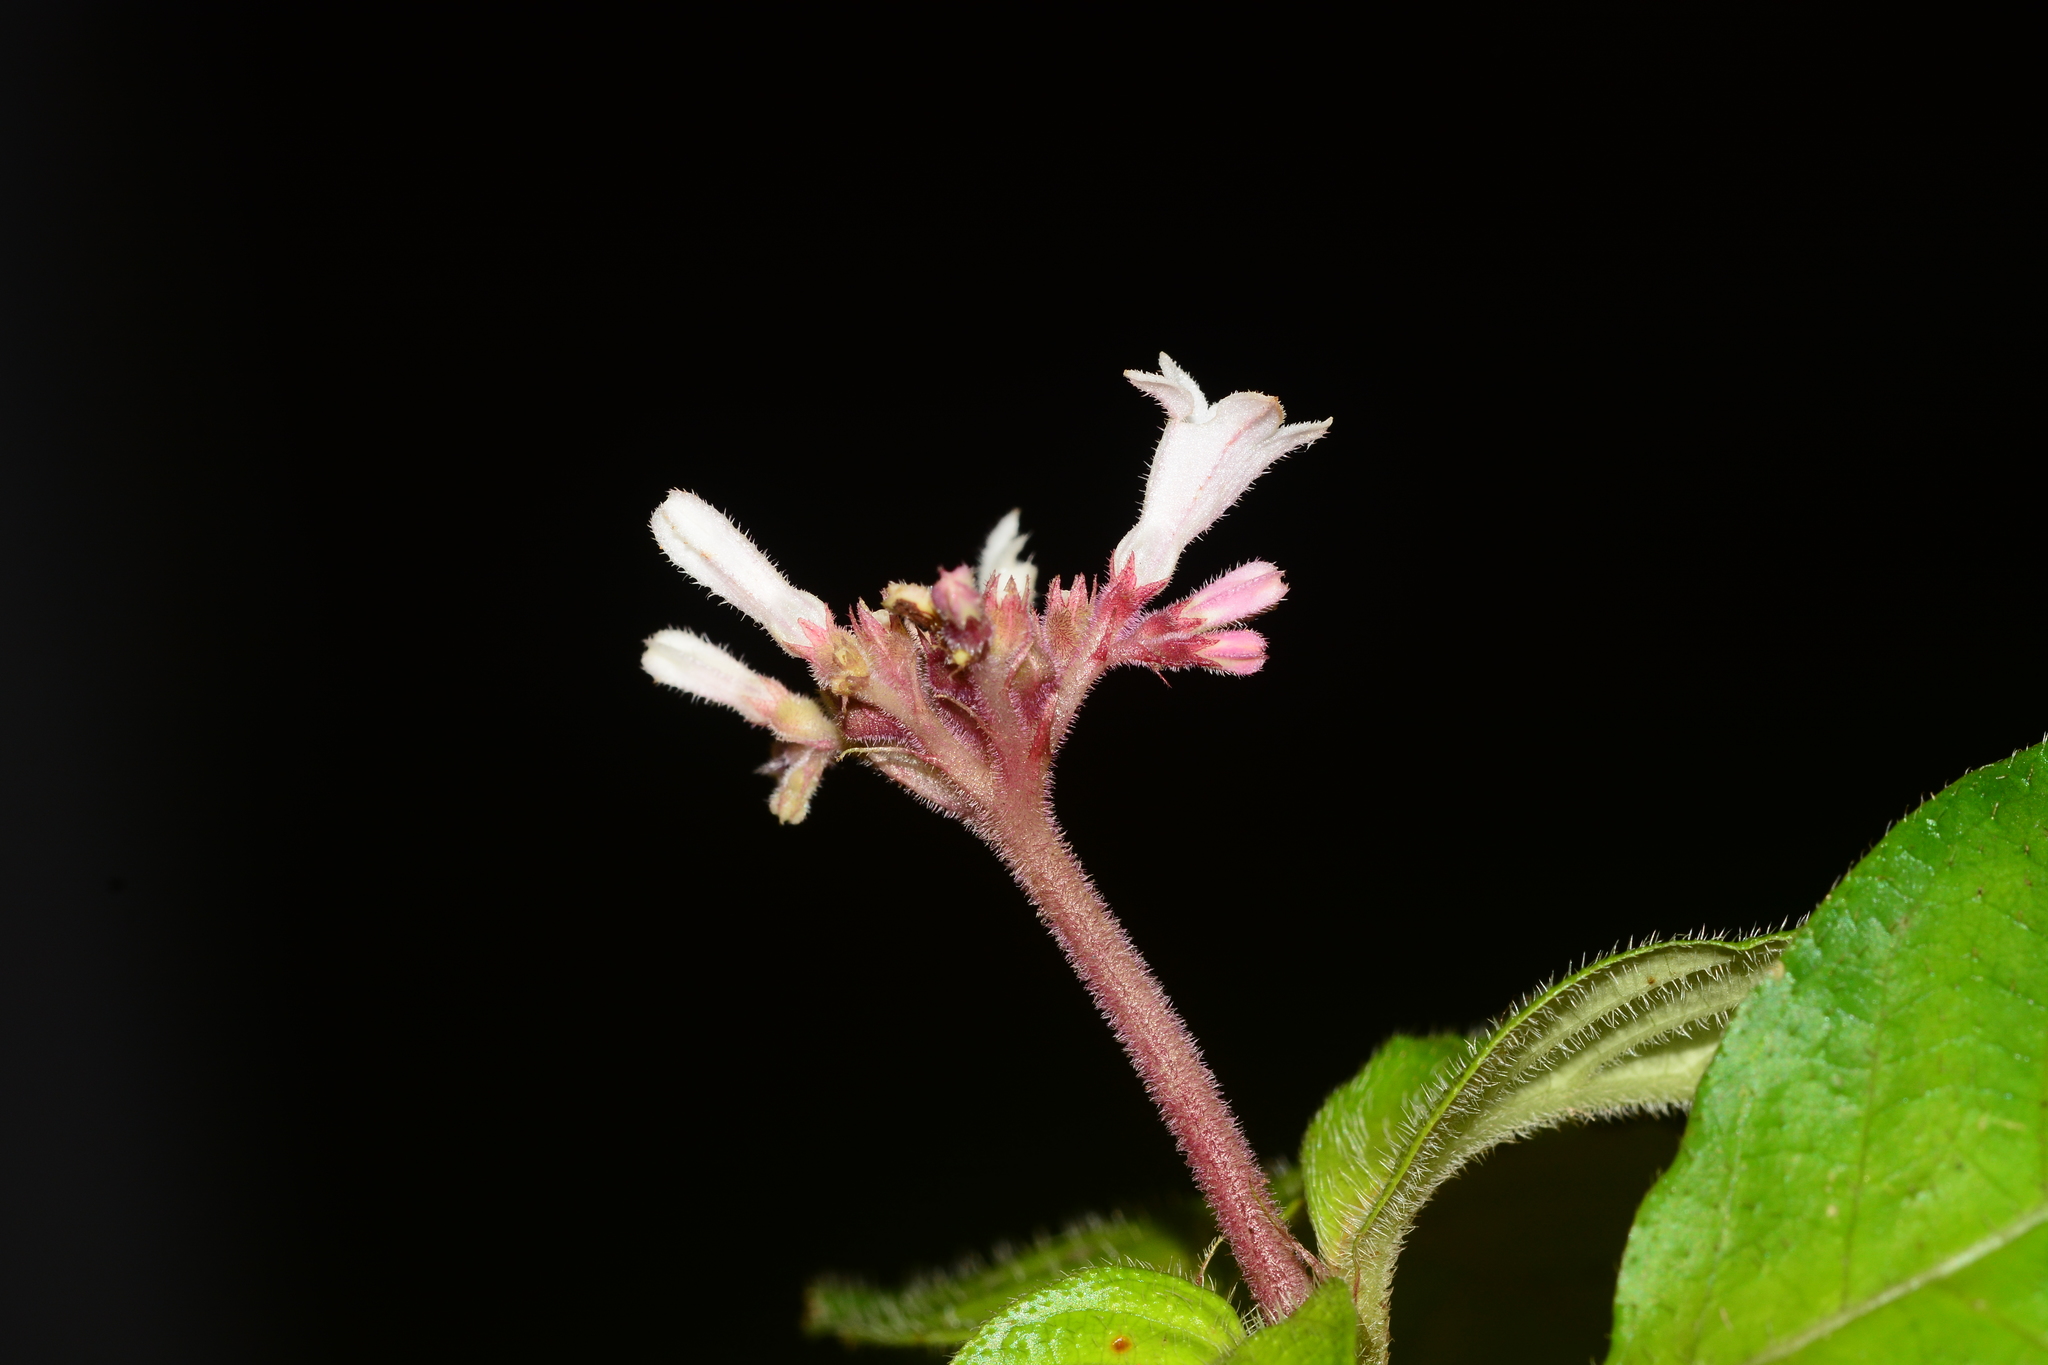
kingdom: Plantae
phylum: Tracheophyta
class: Magnoliopsida
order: Gentianales
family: Rubiaceae
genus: Ophiorrhiza
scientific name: Ophiorrhiza mungos
